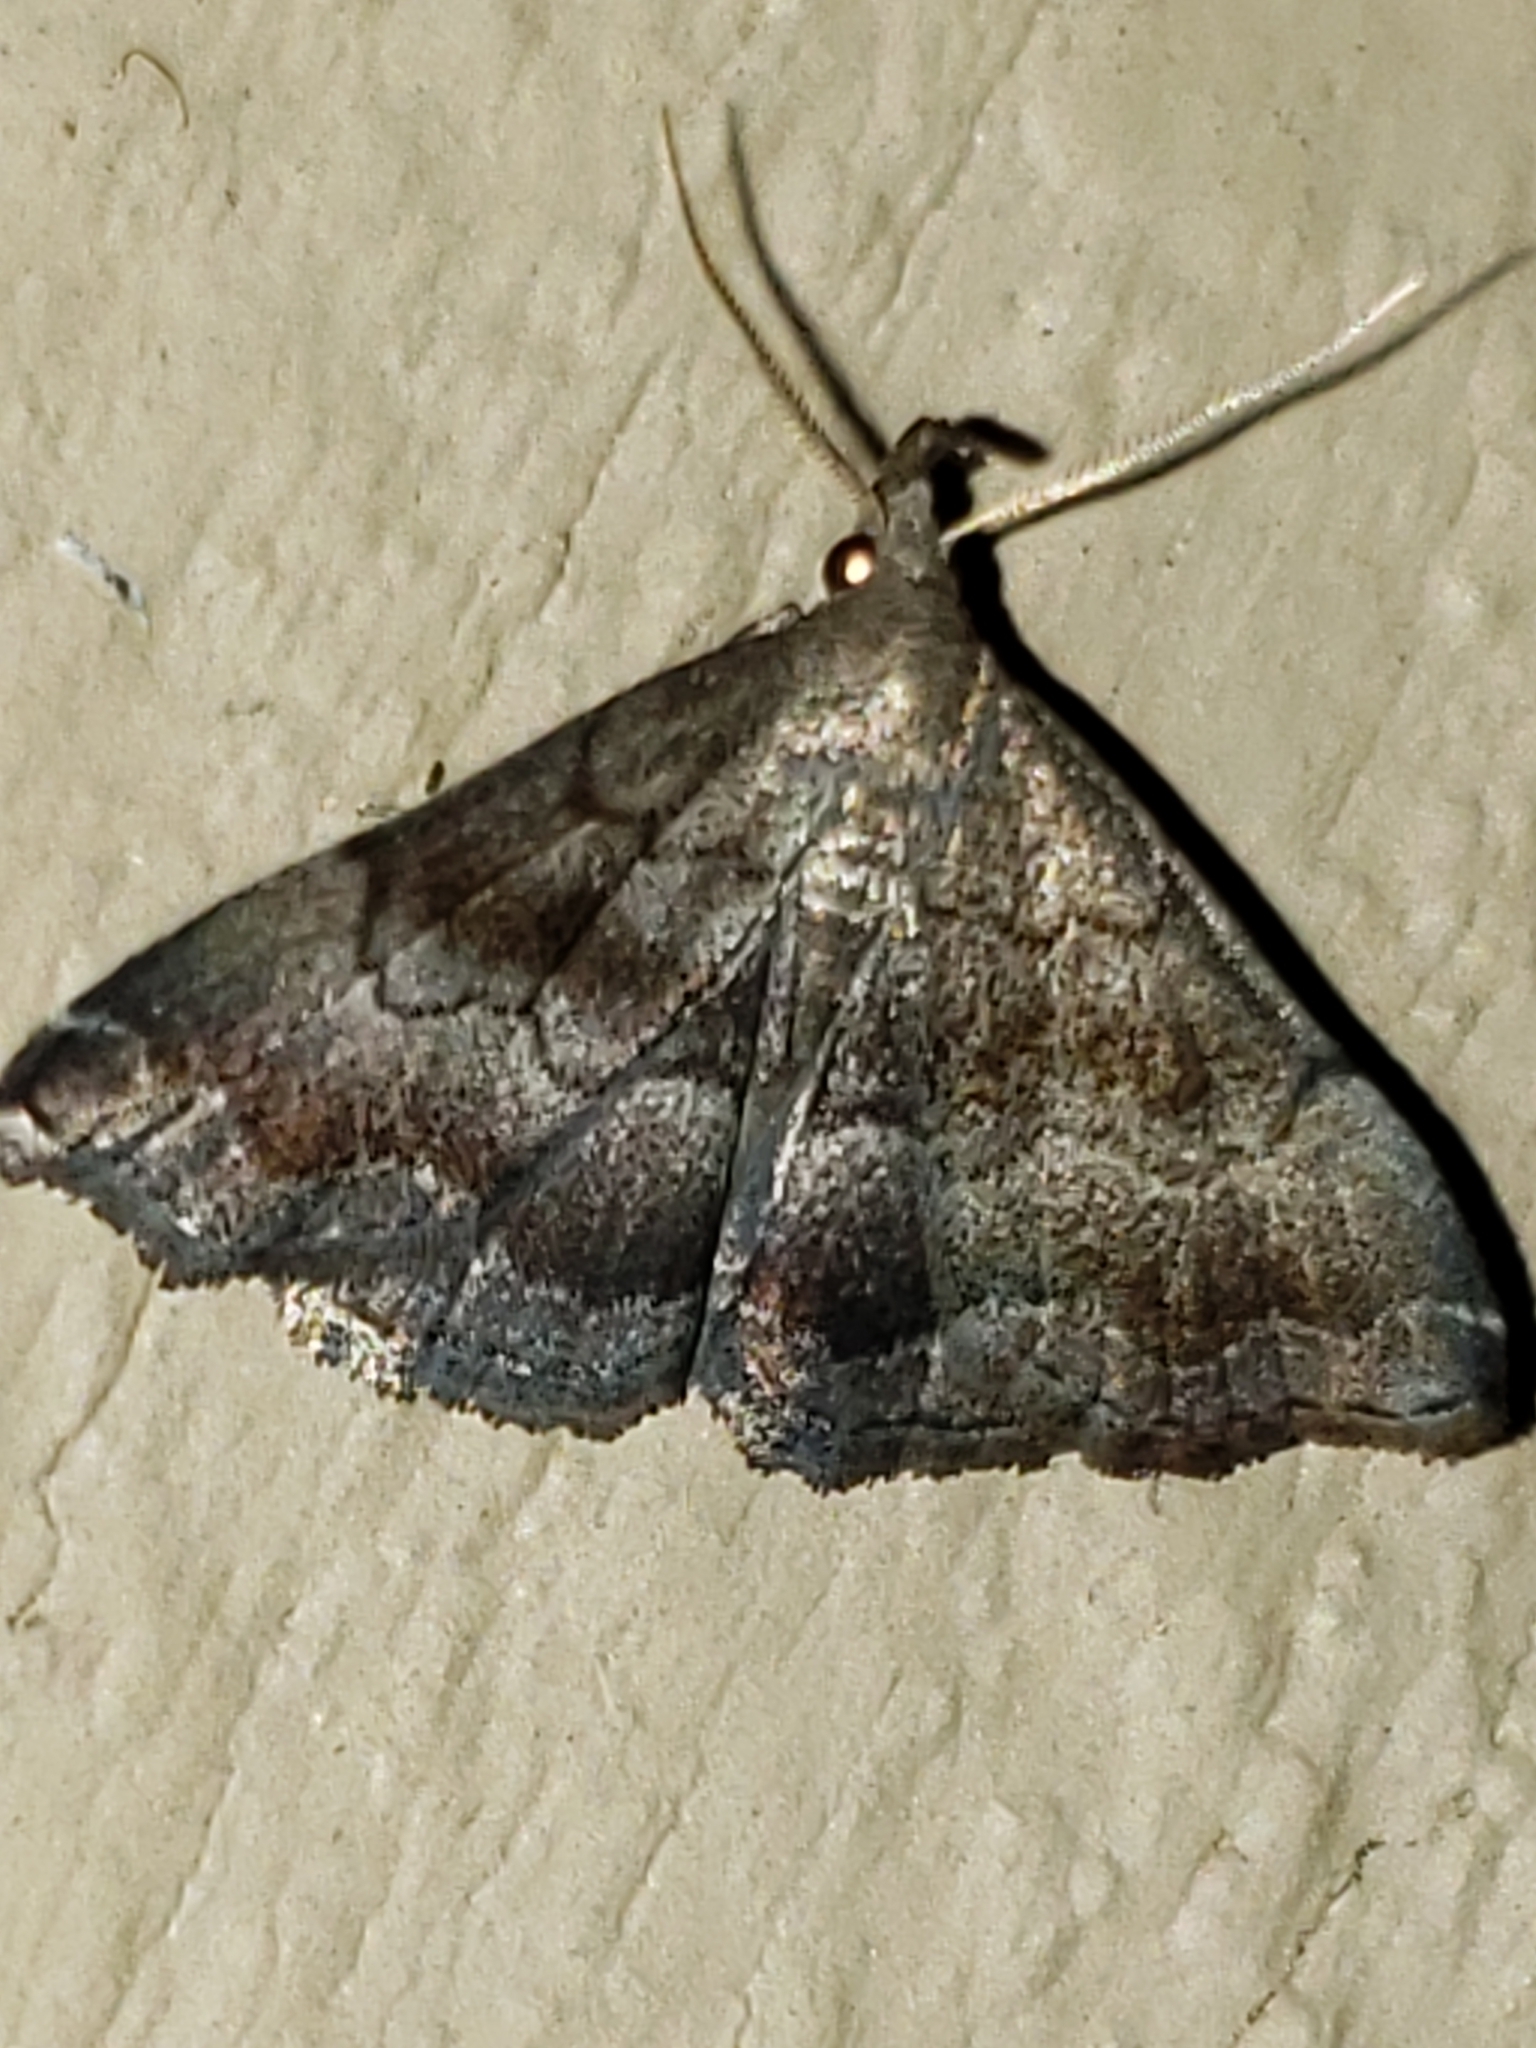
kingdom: Animalia
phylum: Arthropoda
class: Insecta
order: Lepidoptera
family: Erebidae
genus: Phalaenostola
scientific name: Phalaenostola larentioides
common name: Black-banded owlet
